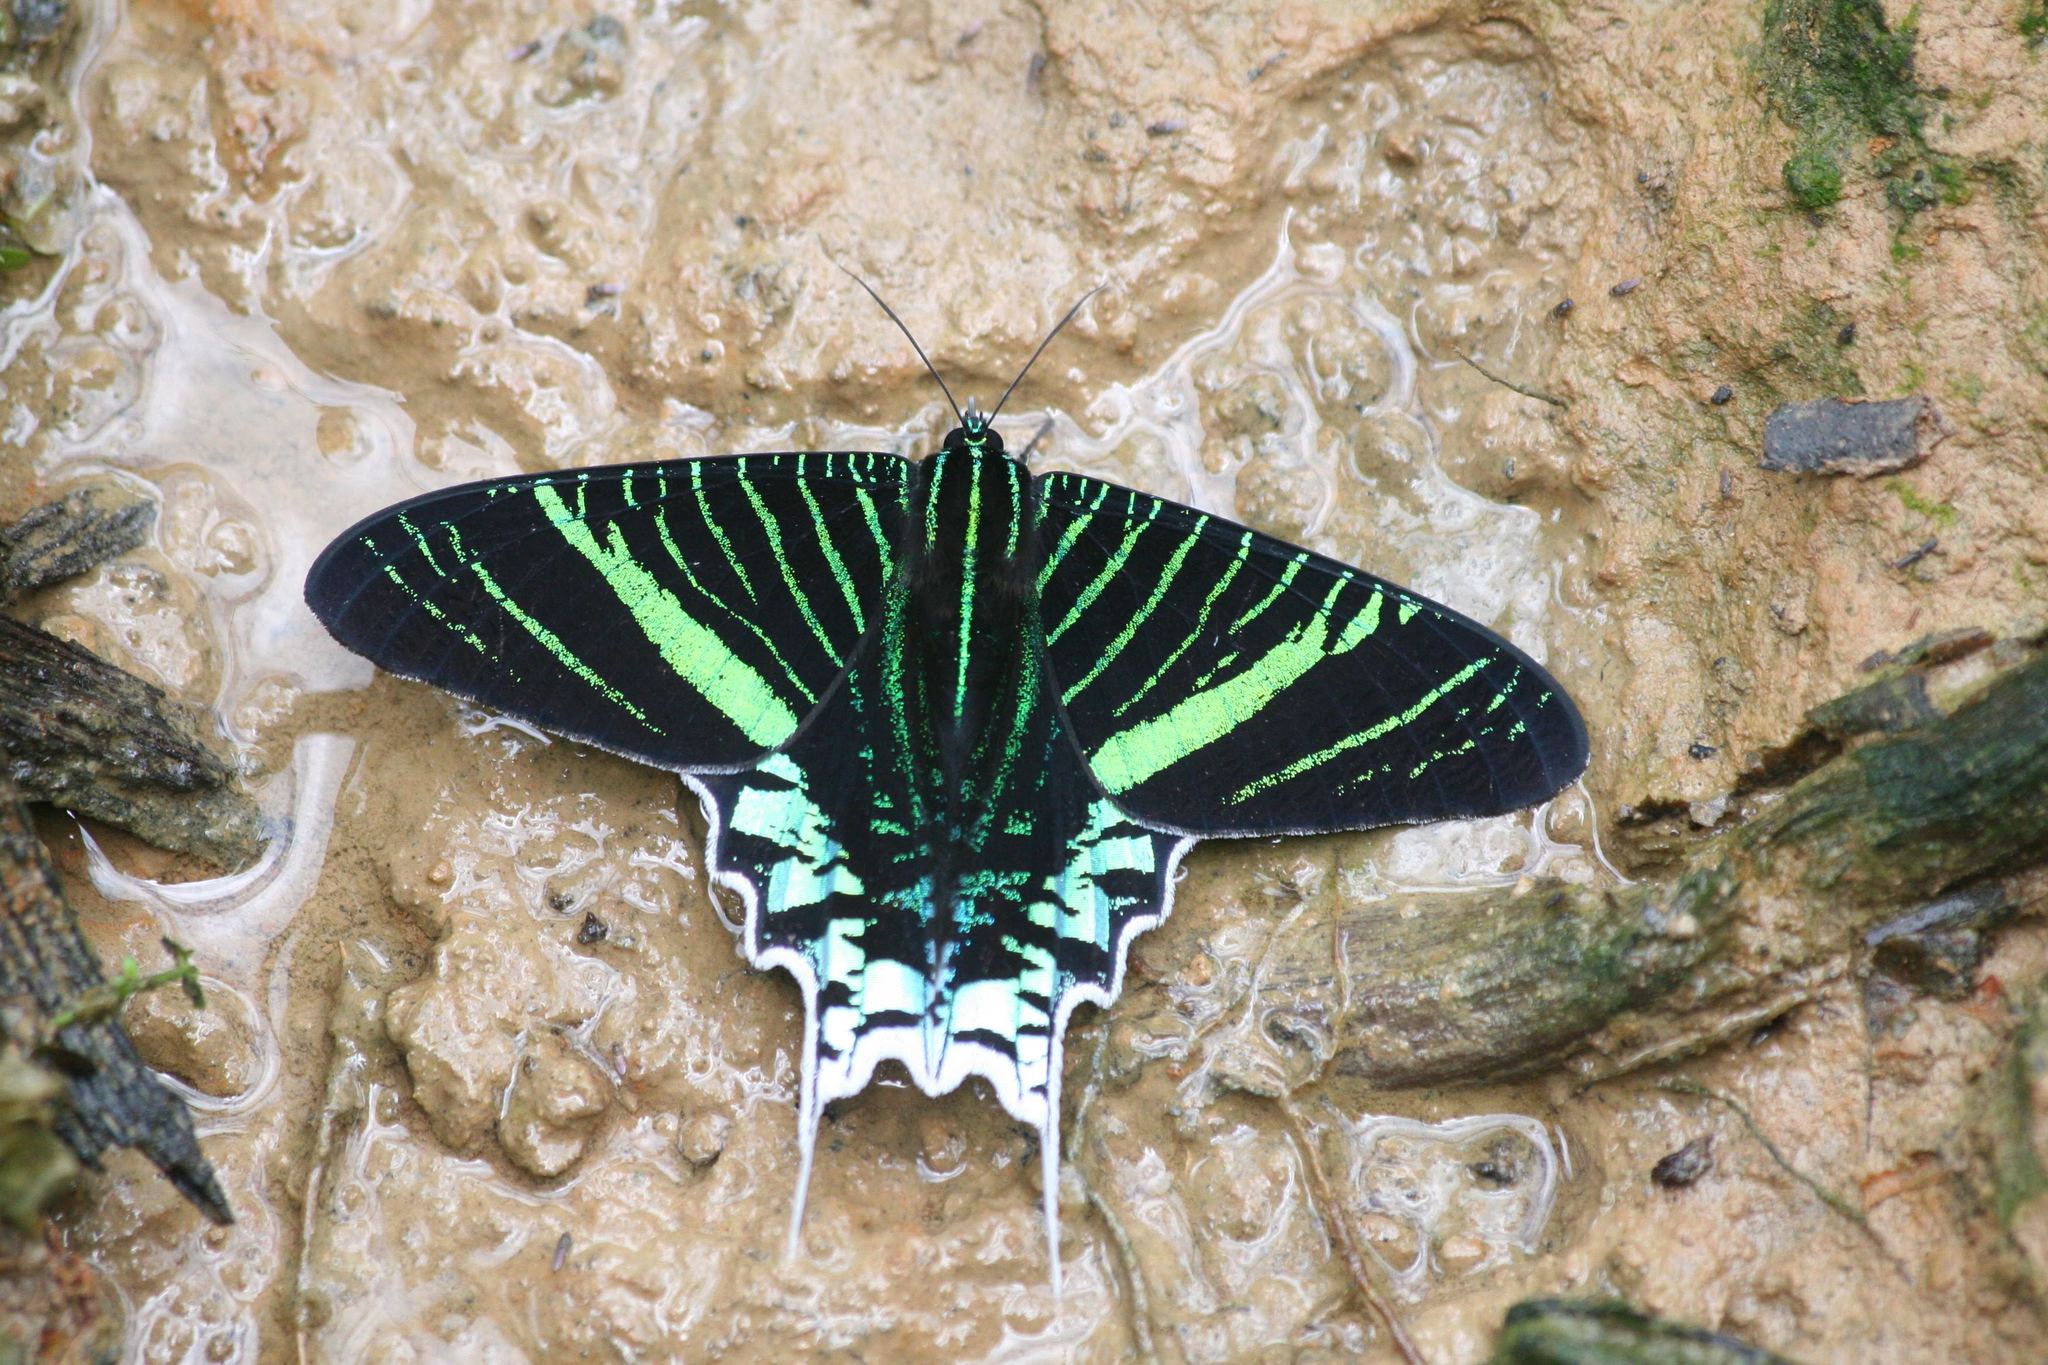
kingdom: Animalia
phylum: Arthropoda
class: Insecta
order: Lepidoptera
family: Uraniidae
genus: Urania
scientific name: Urania leilus
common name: Peacock moth
